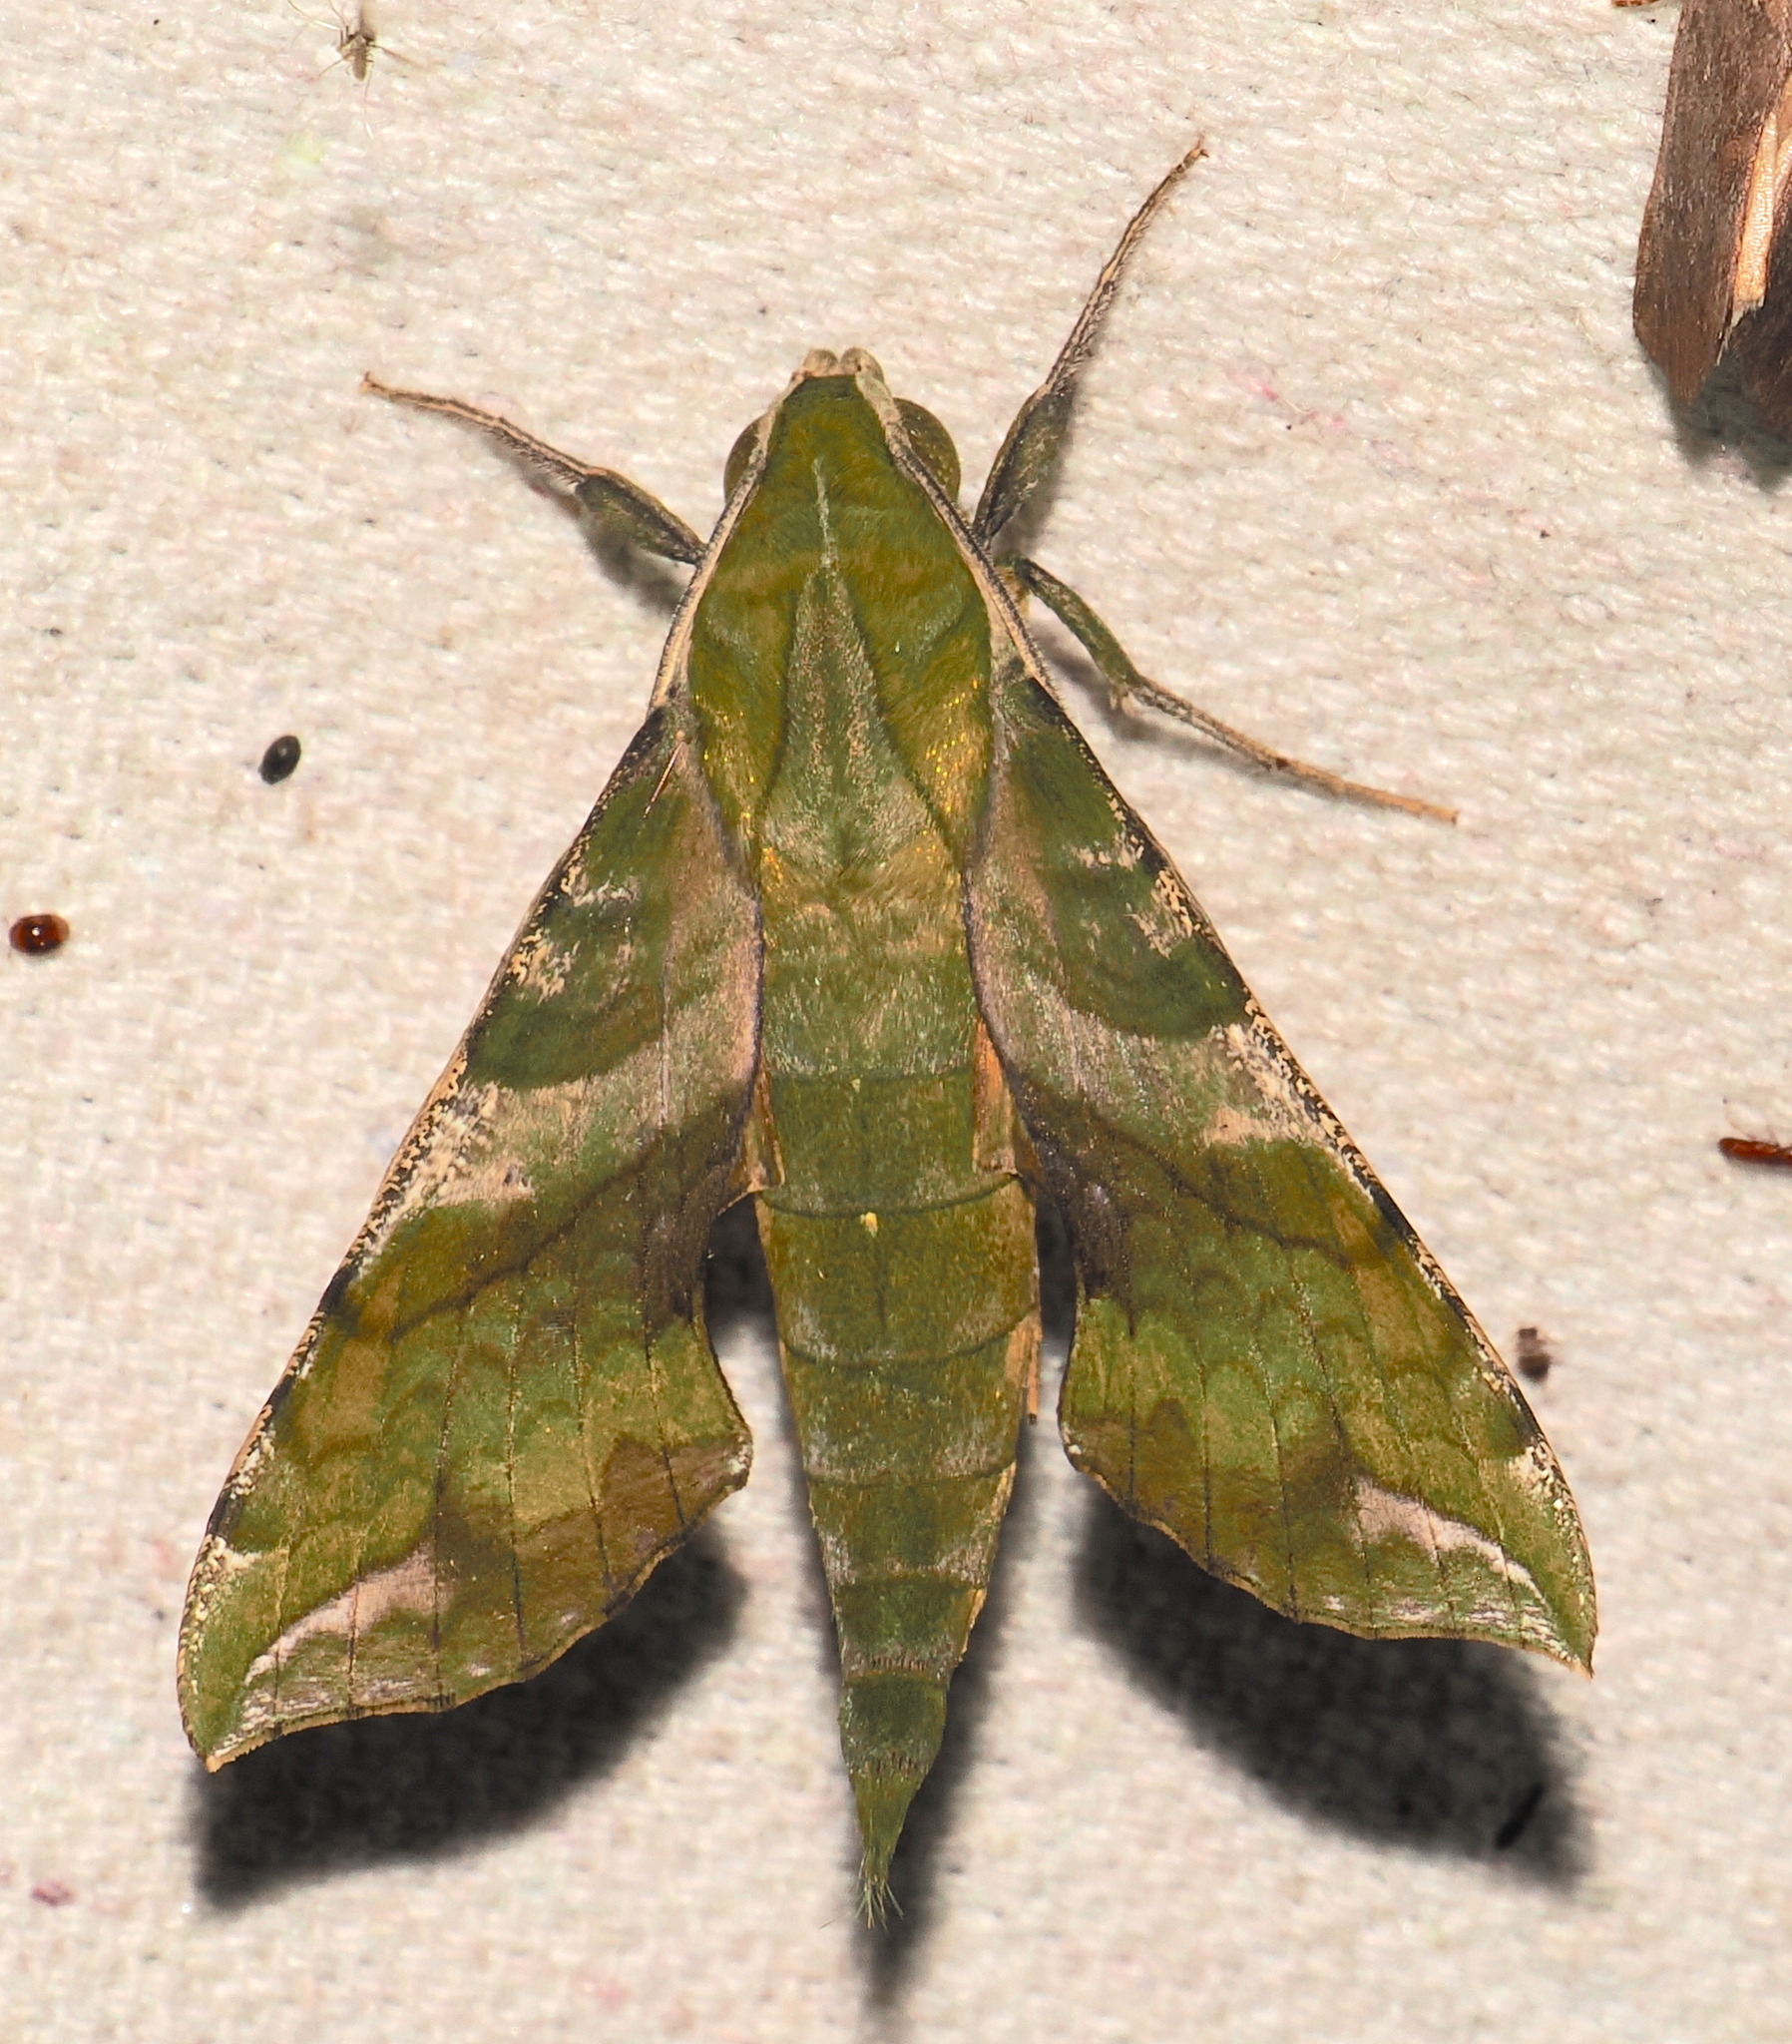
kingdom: Animalia
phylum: Arthropoda
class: Insecta
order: Lepidoptera
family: Sphingidae
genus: Xylophanes
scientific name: Xylophanes pluto
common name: Pluto sphinx
